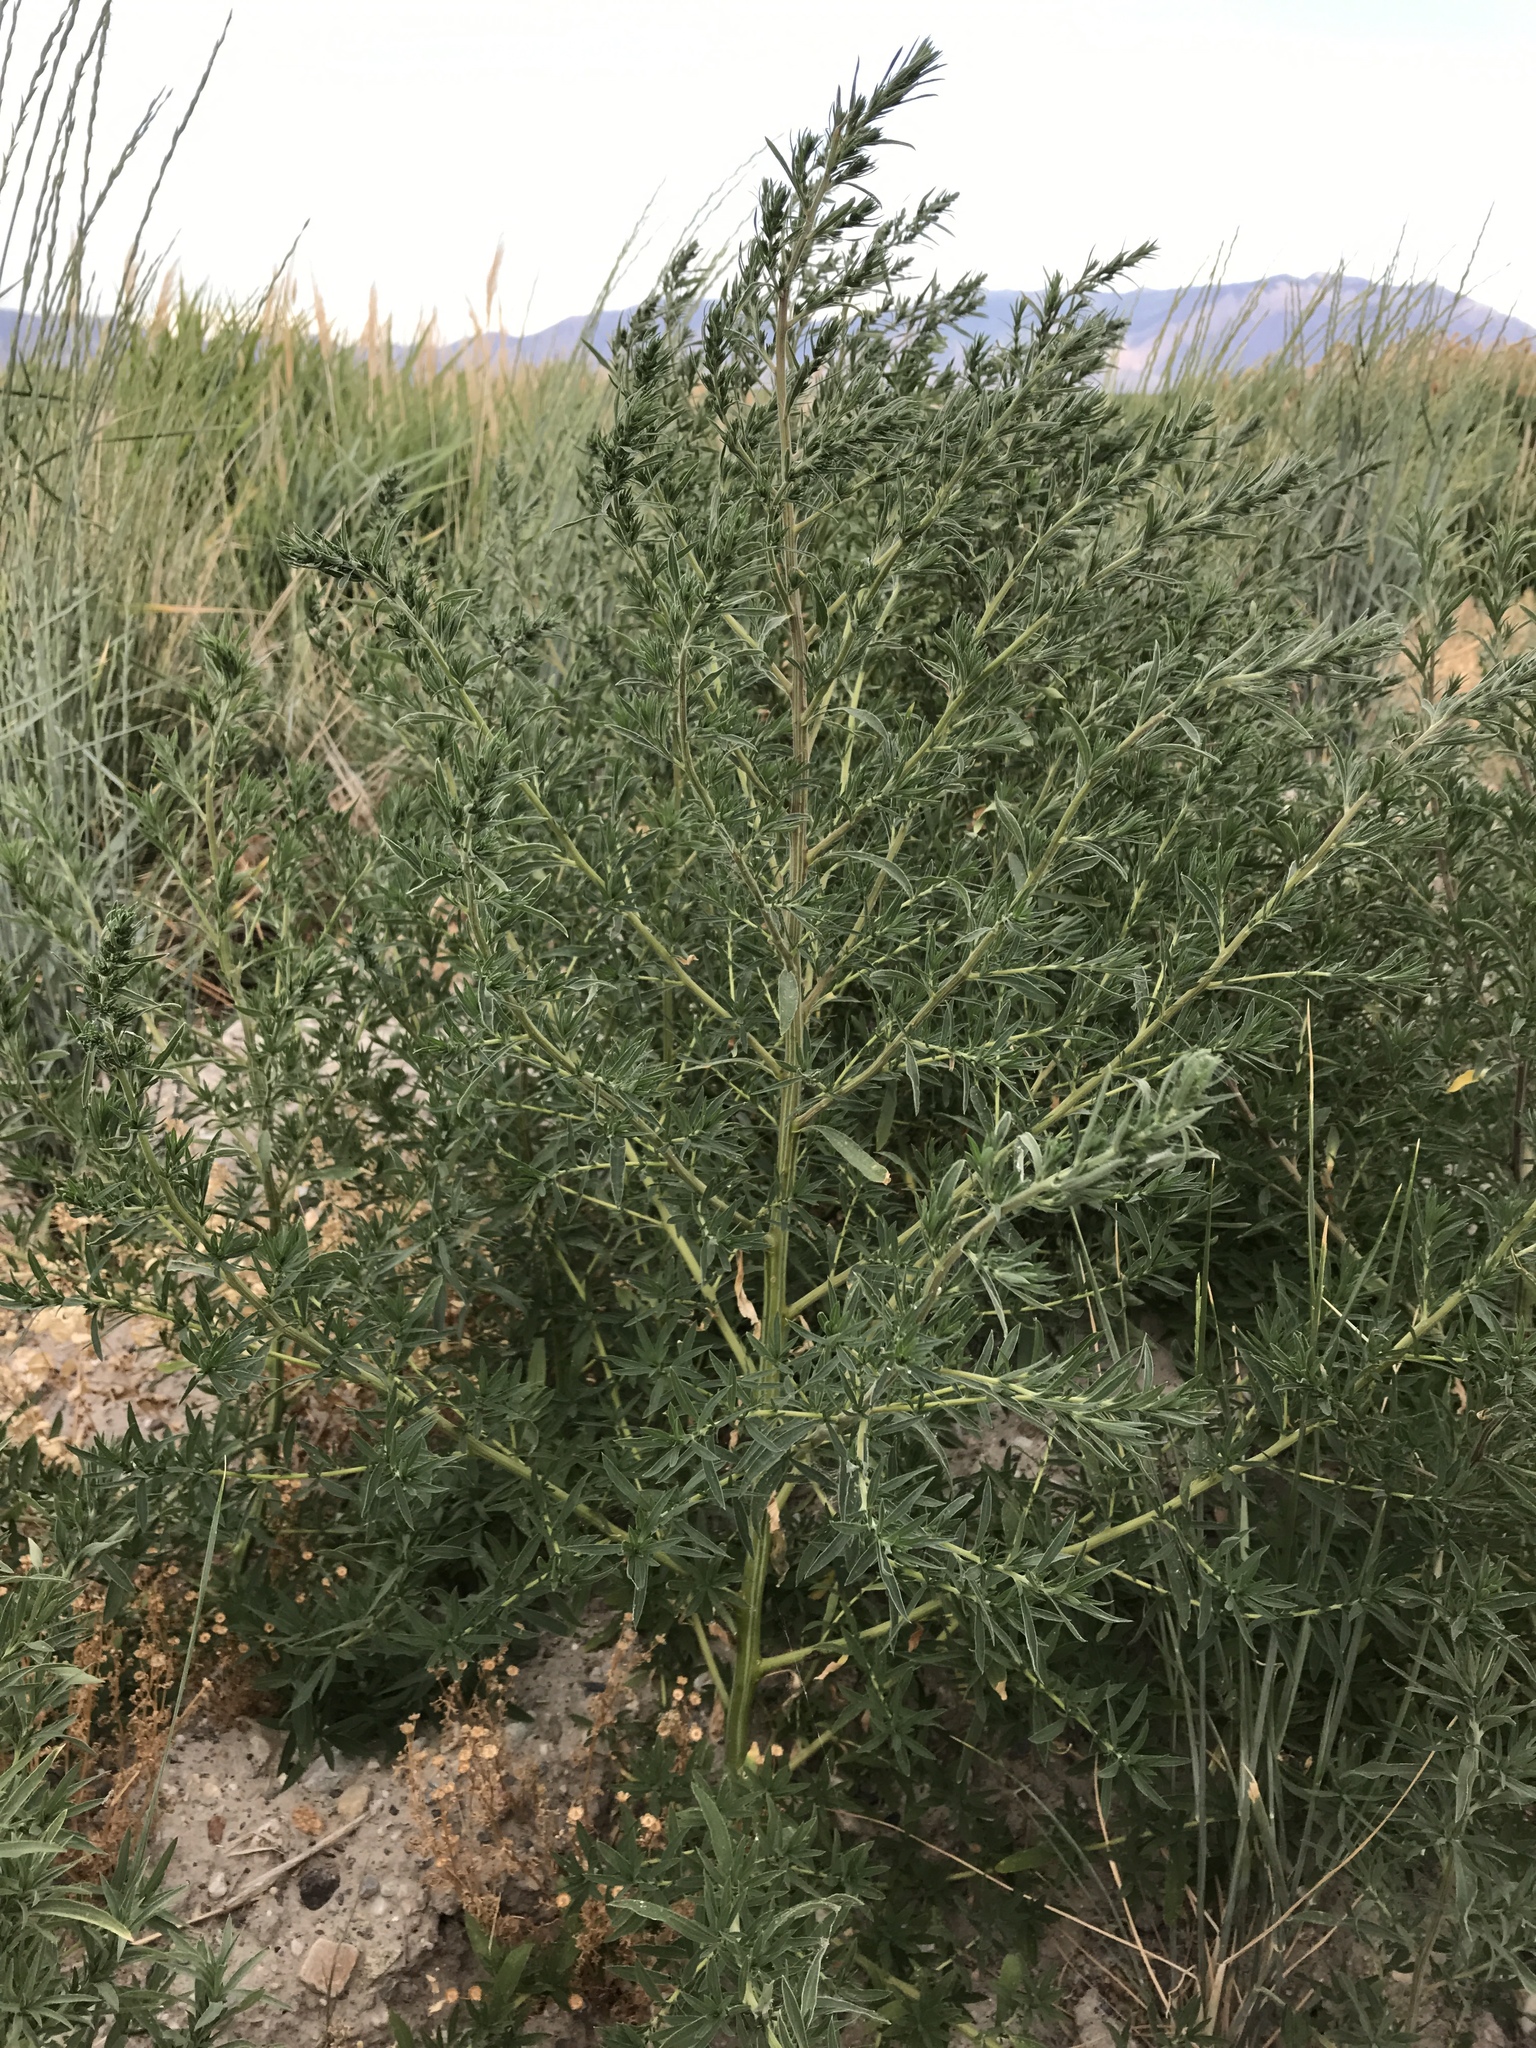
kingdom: Plantae
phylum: Tracheophyta
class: Magnoliopsida
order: Caryophyllales
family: Amaranthaceae
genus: Bassia
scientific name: Bassia scoparia
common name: Belvedere
